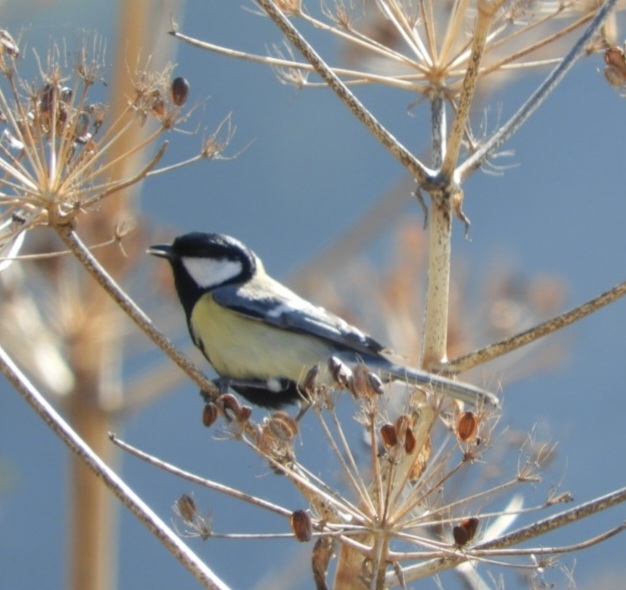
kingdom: Animalia
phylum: Chordata
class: Aves
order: Passeriformes
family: Paridae
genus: Parus
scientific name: Parus major
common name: Great tit
